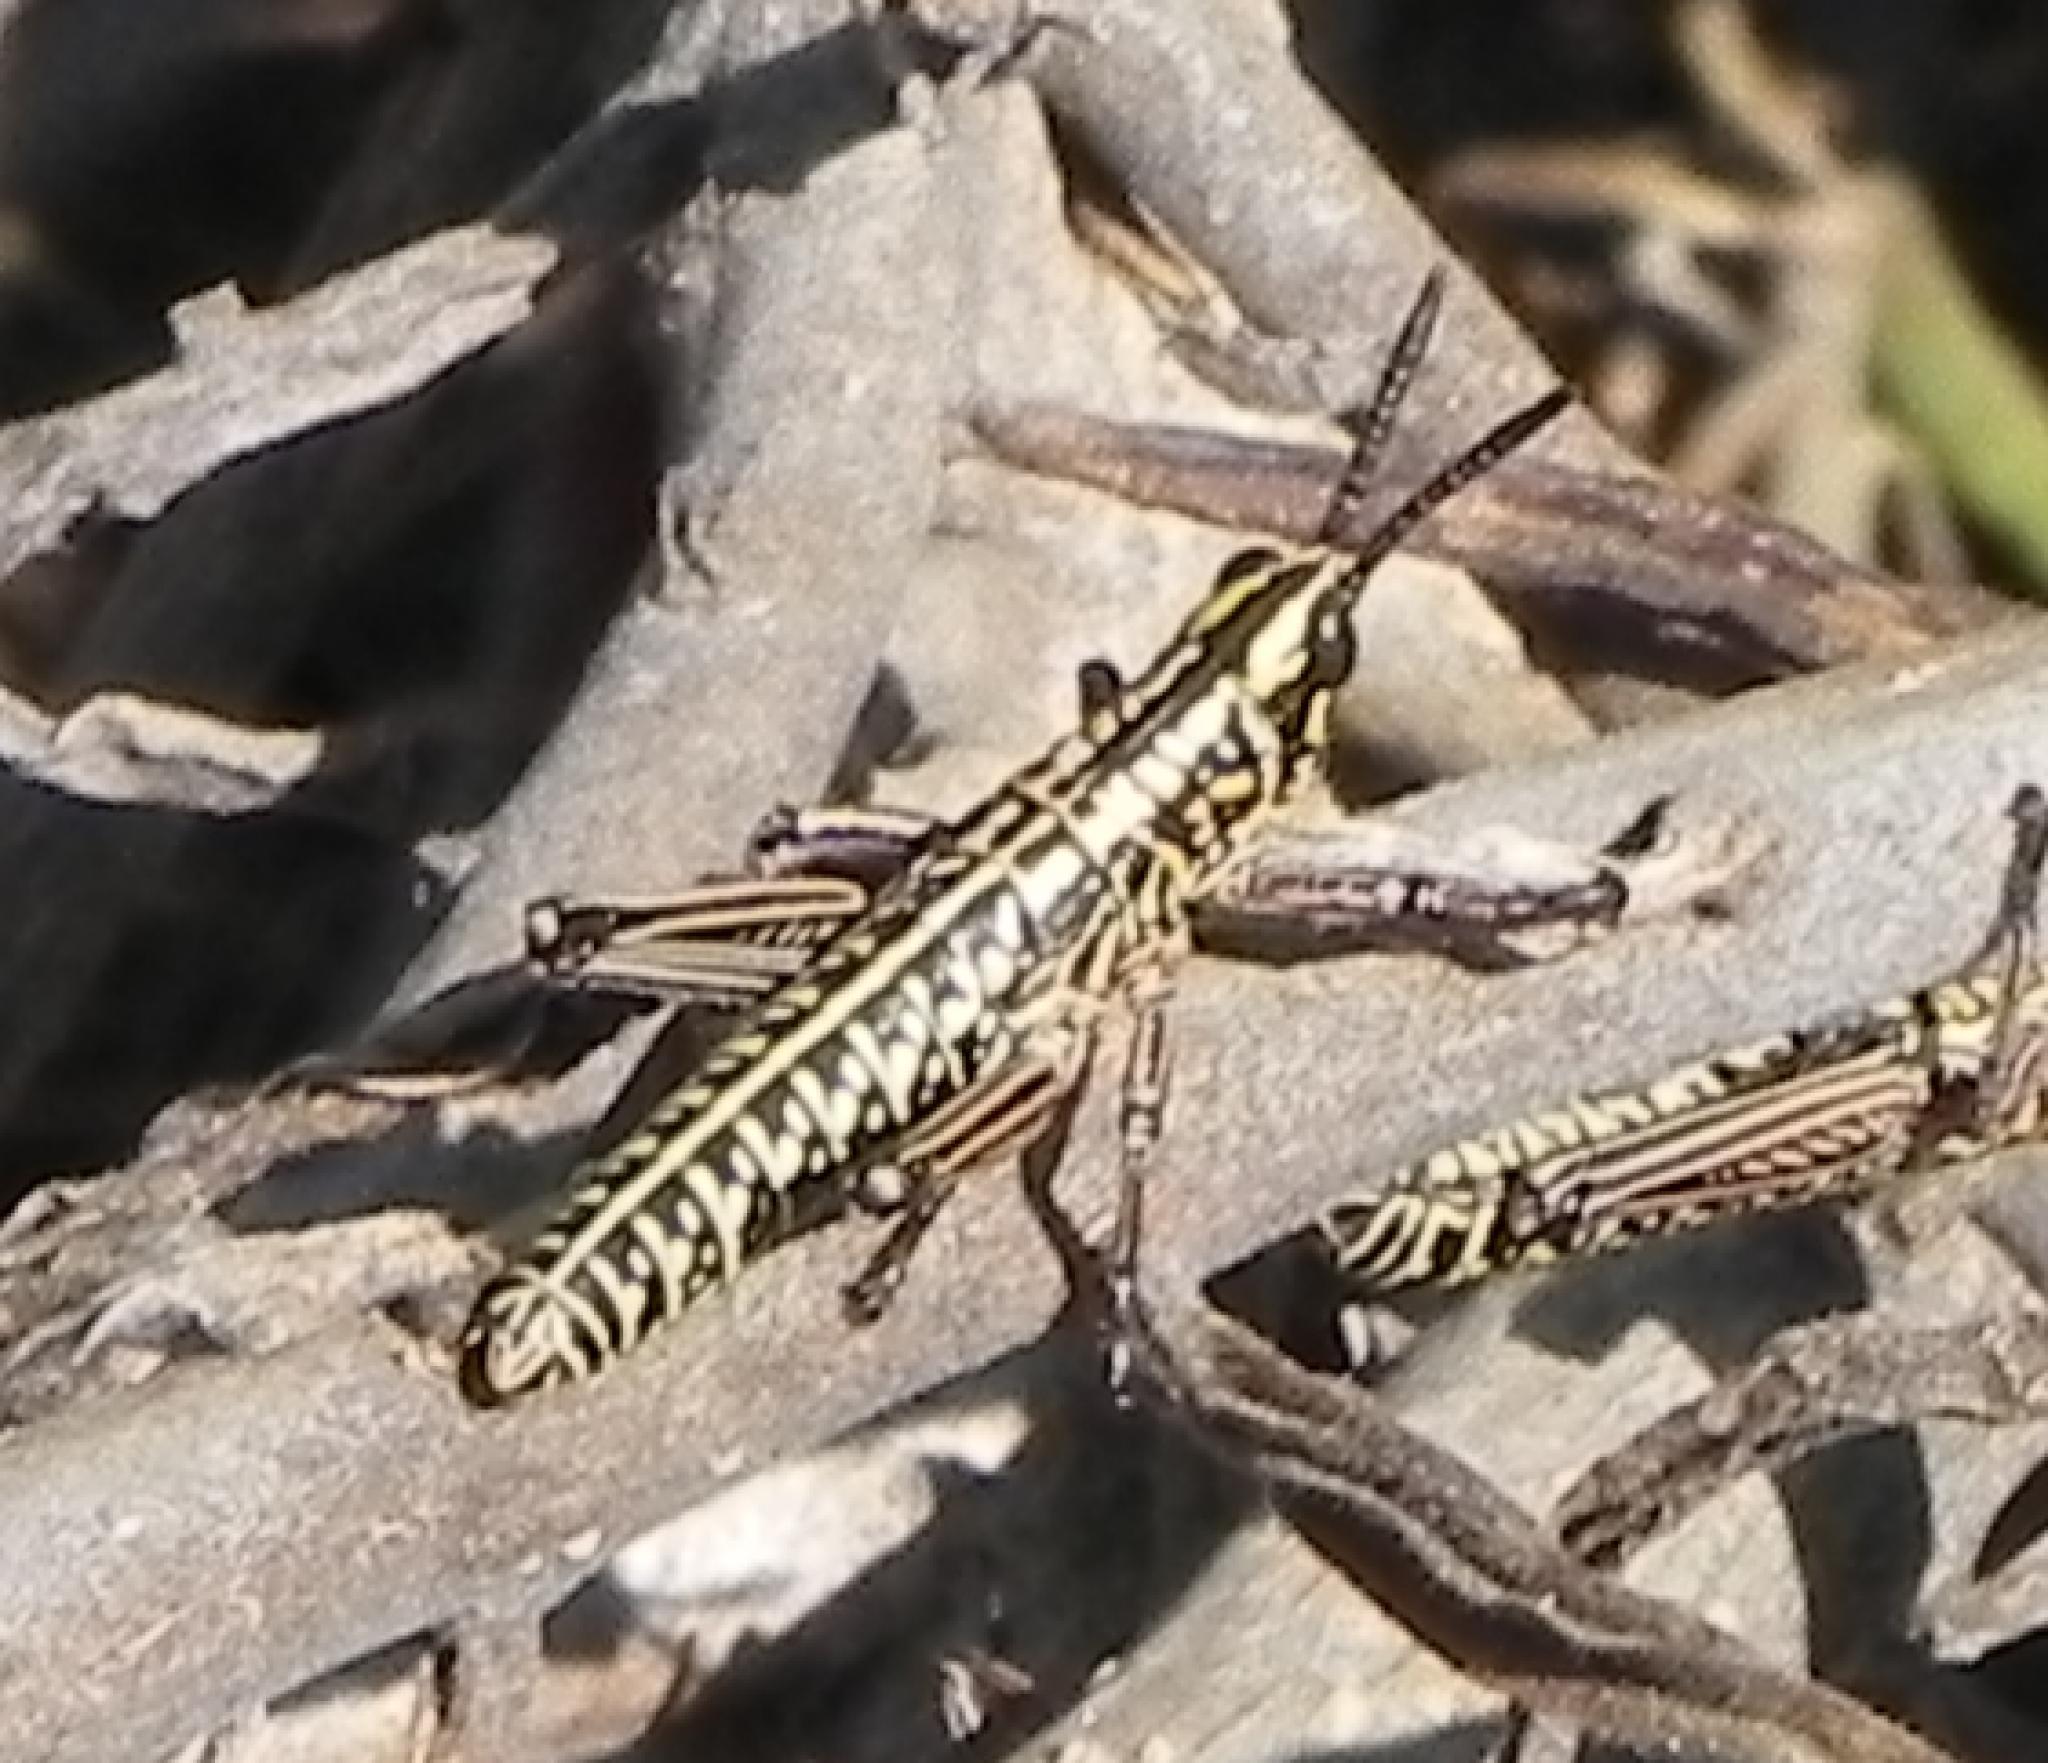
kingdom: Animalia
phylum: Arthropoda
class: Insecta
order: Orthoptera
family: Pyrgomorphidae
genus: Phymateus
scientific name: Phymateus viridipes
